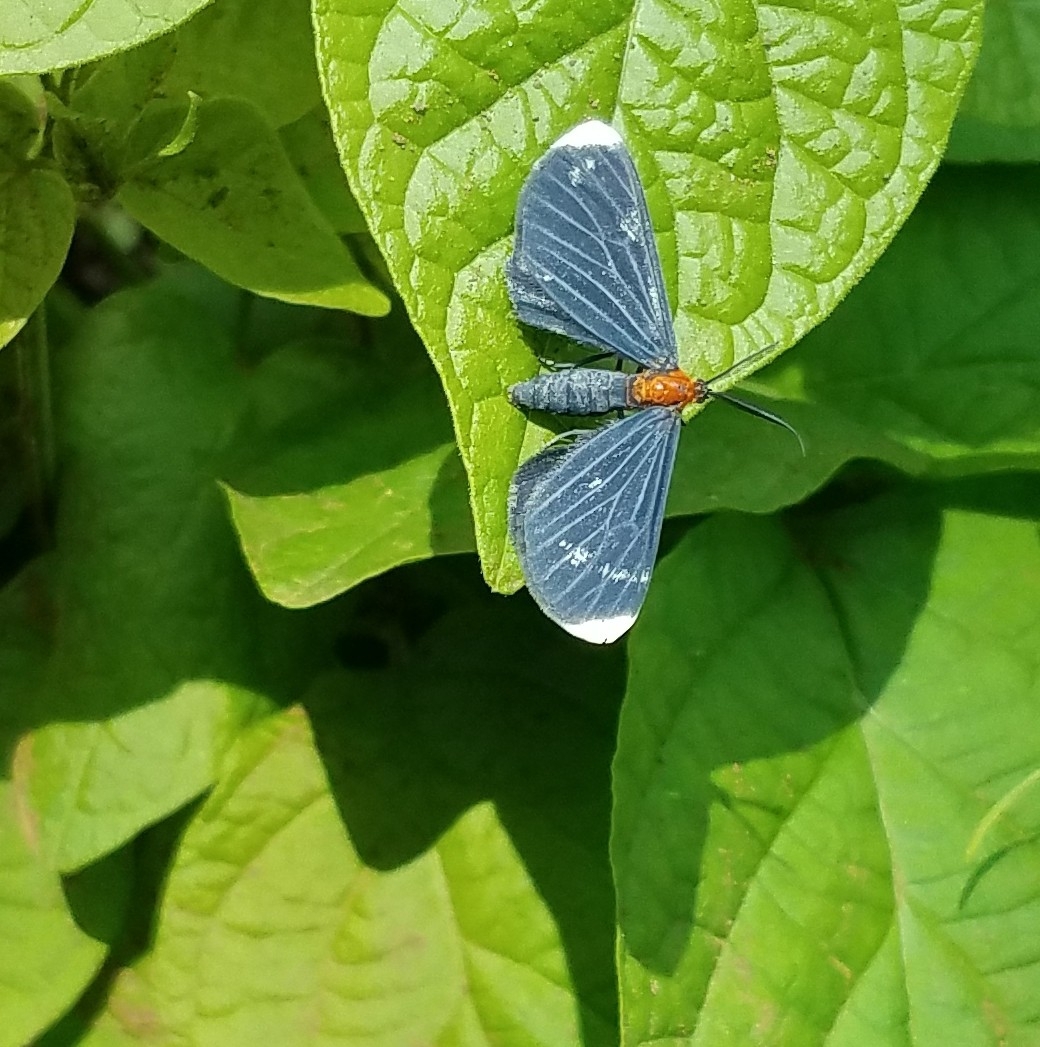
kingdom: Animalia
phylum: Arthropoda
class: Insecta
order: Lepidoptera
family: Geometridae
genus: Melanchroia
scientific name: Melanchroia chephise
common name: White-tipped black
